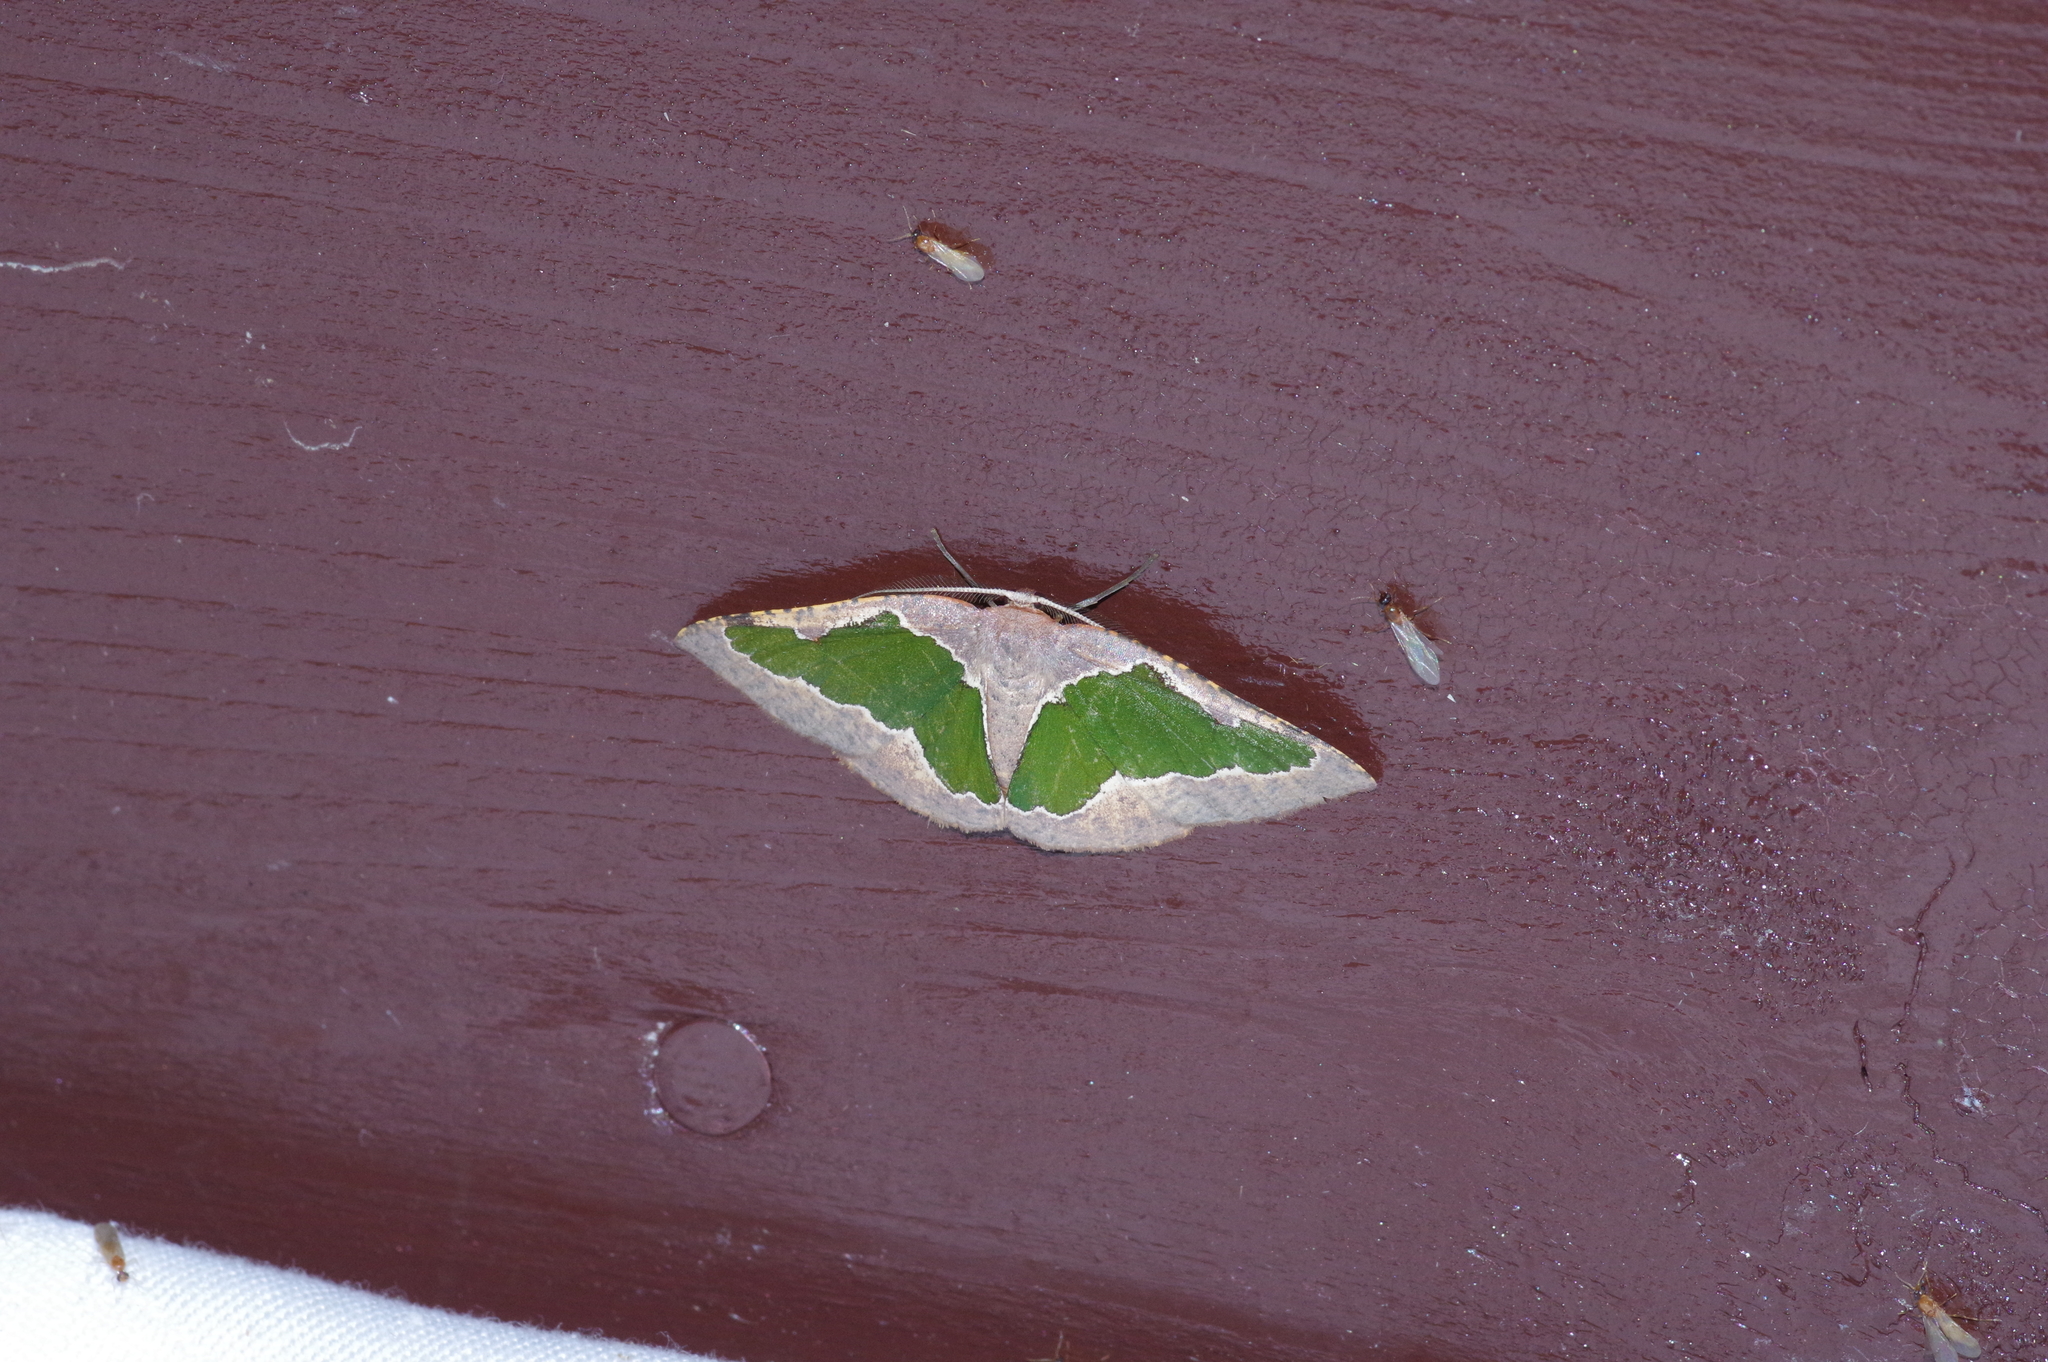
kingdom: Animalia
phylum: Arthropoda
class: Insecta
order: Lepidoptera
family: Geometridae
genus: Celenna
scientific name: Celenna festivaria
